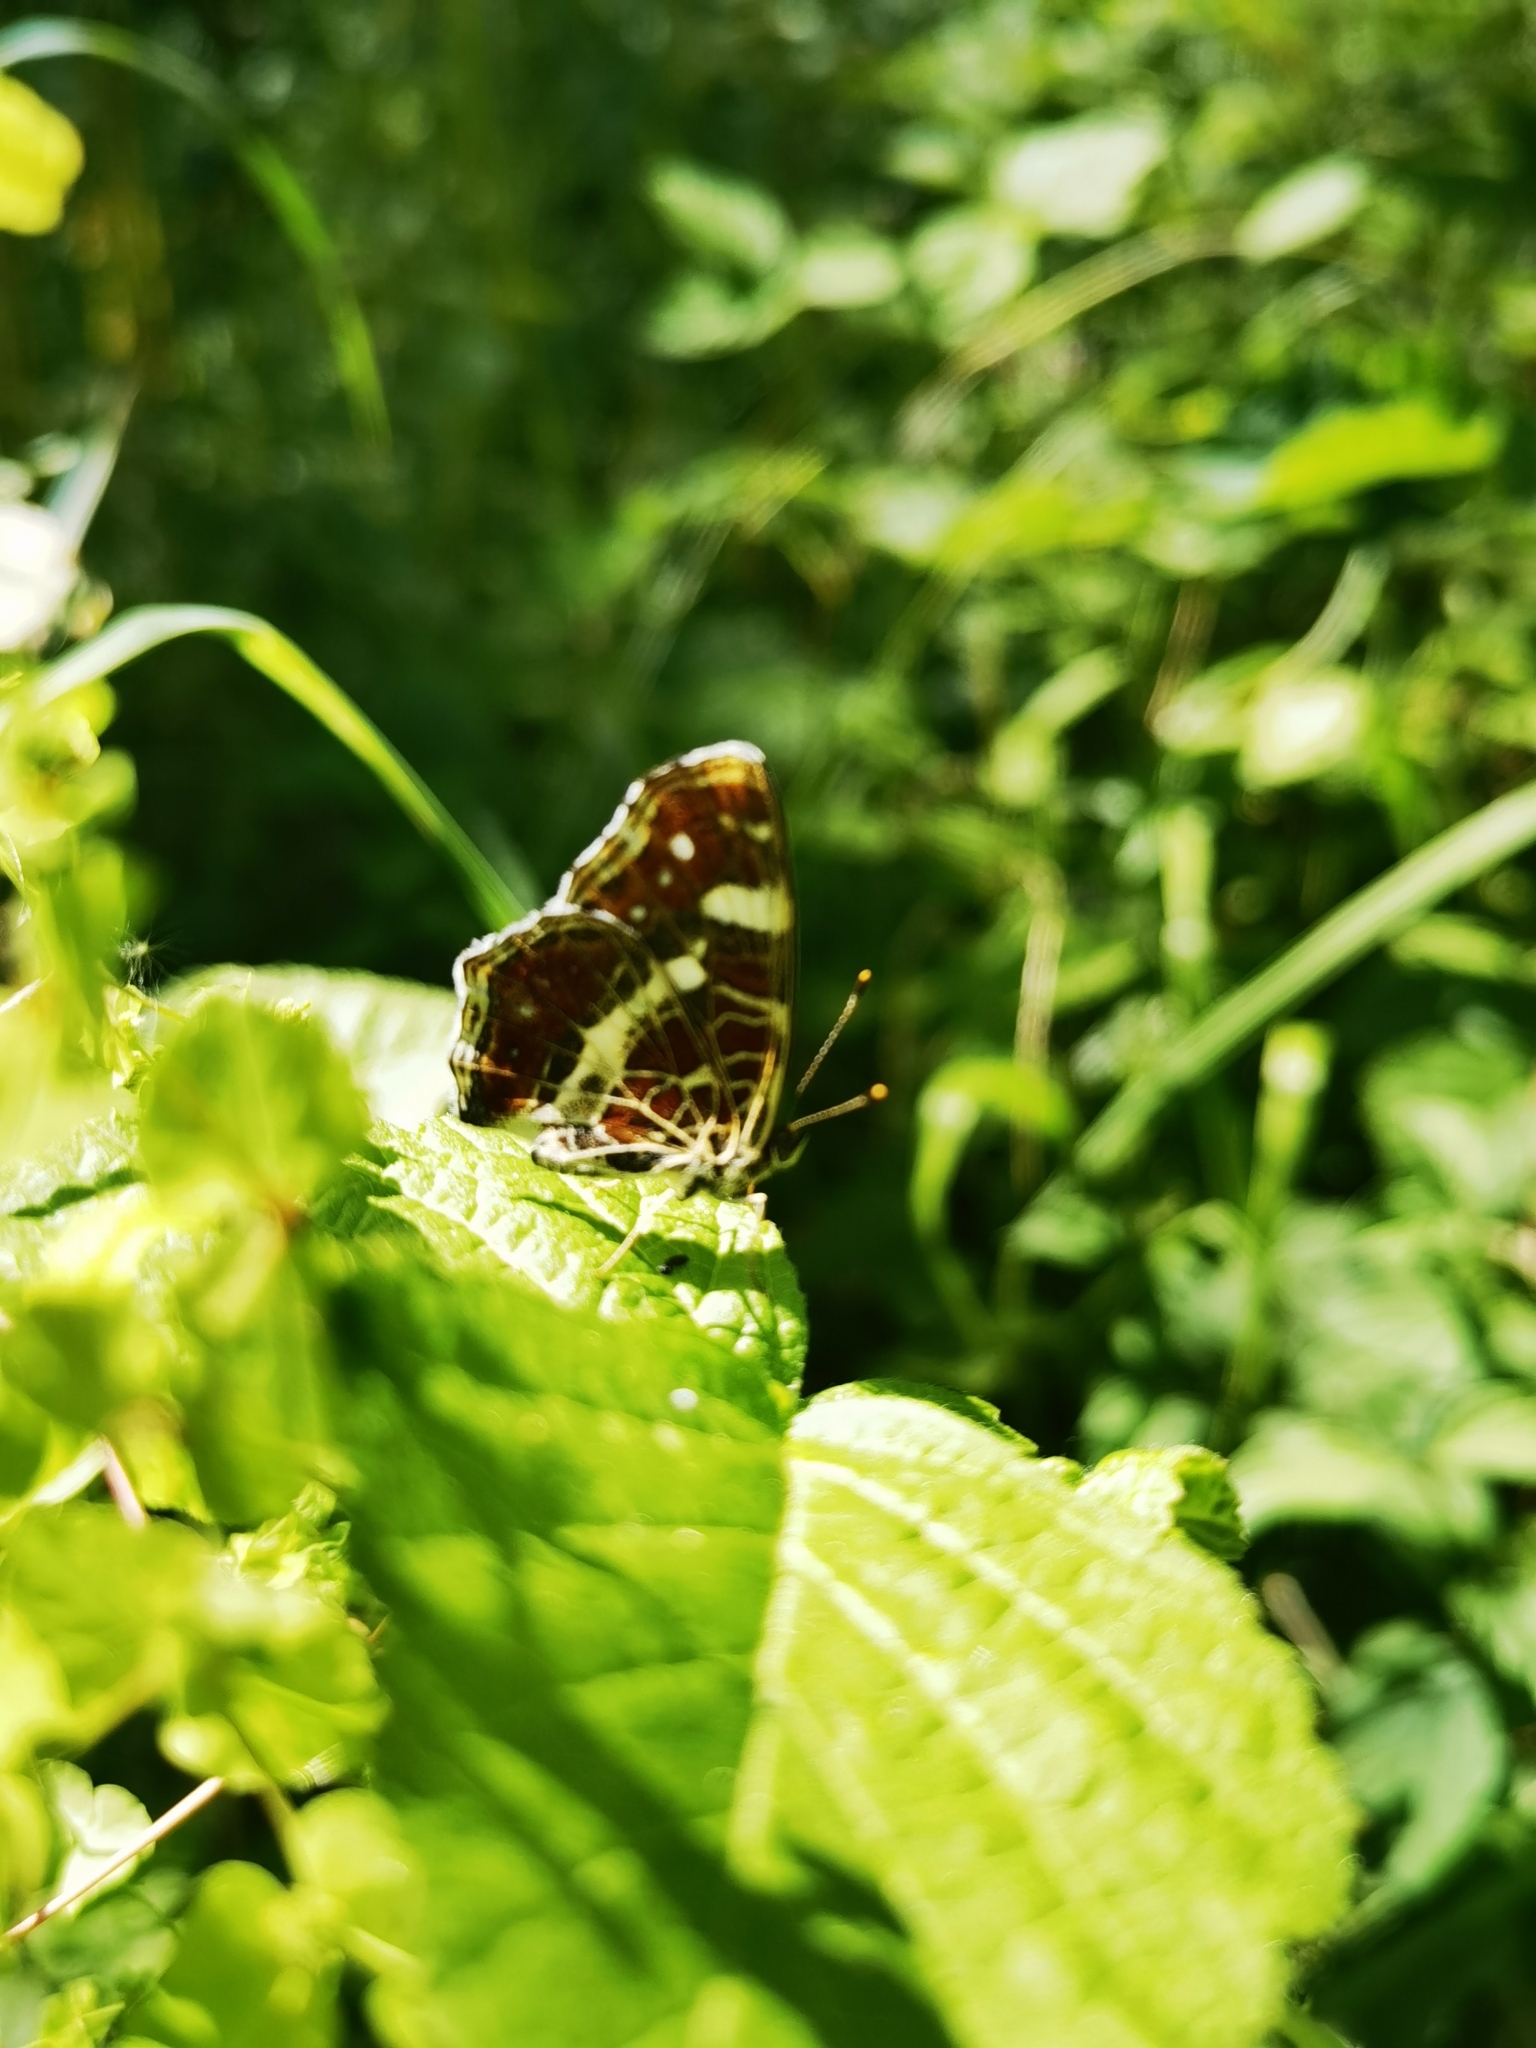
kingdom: Animalia
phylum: Arthropoda
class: Insecta
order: Lepidoptera
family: Nymphalidae
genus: Araschnia
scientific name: Araschnia levana
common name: Map butterfly
